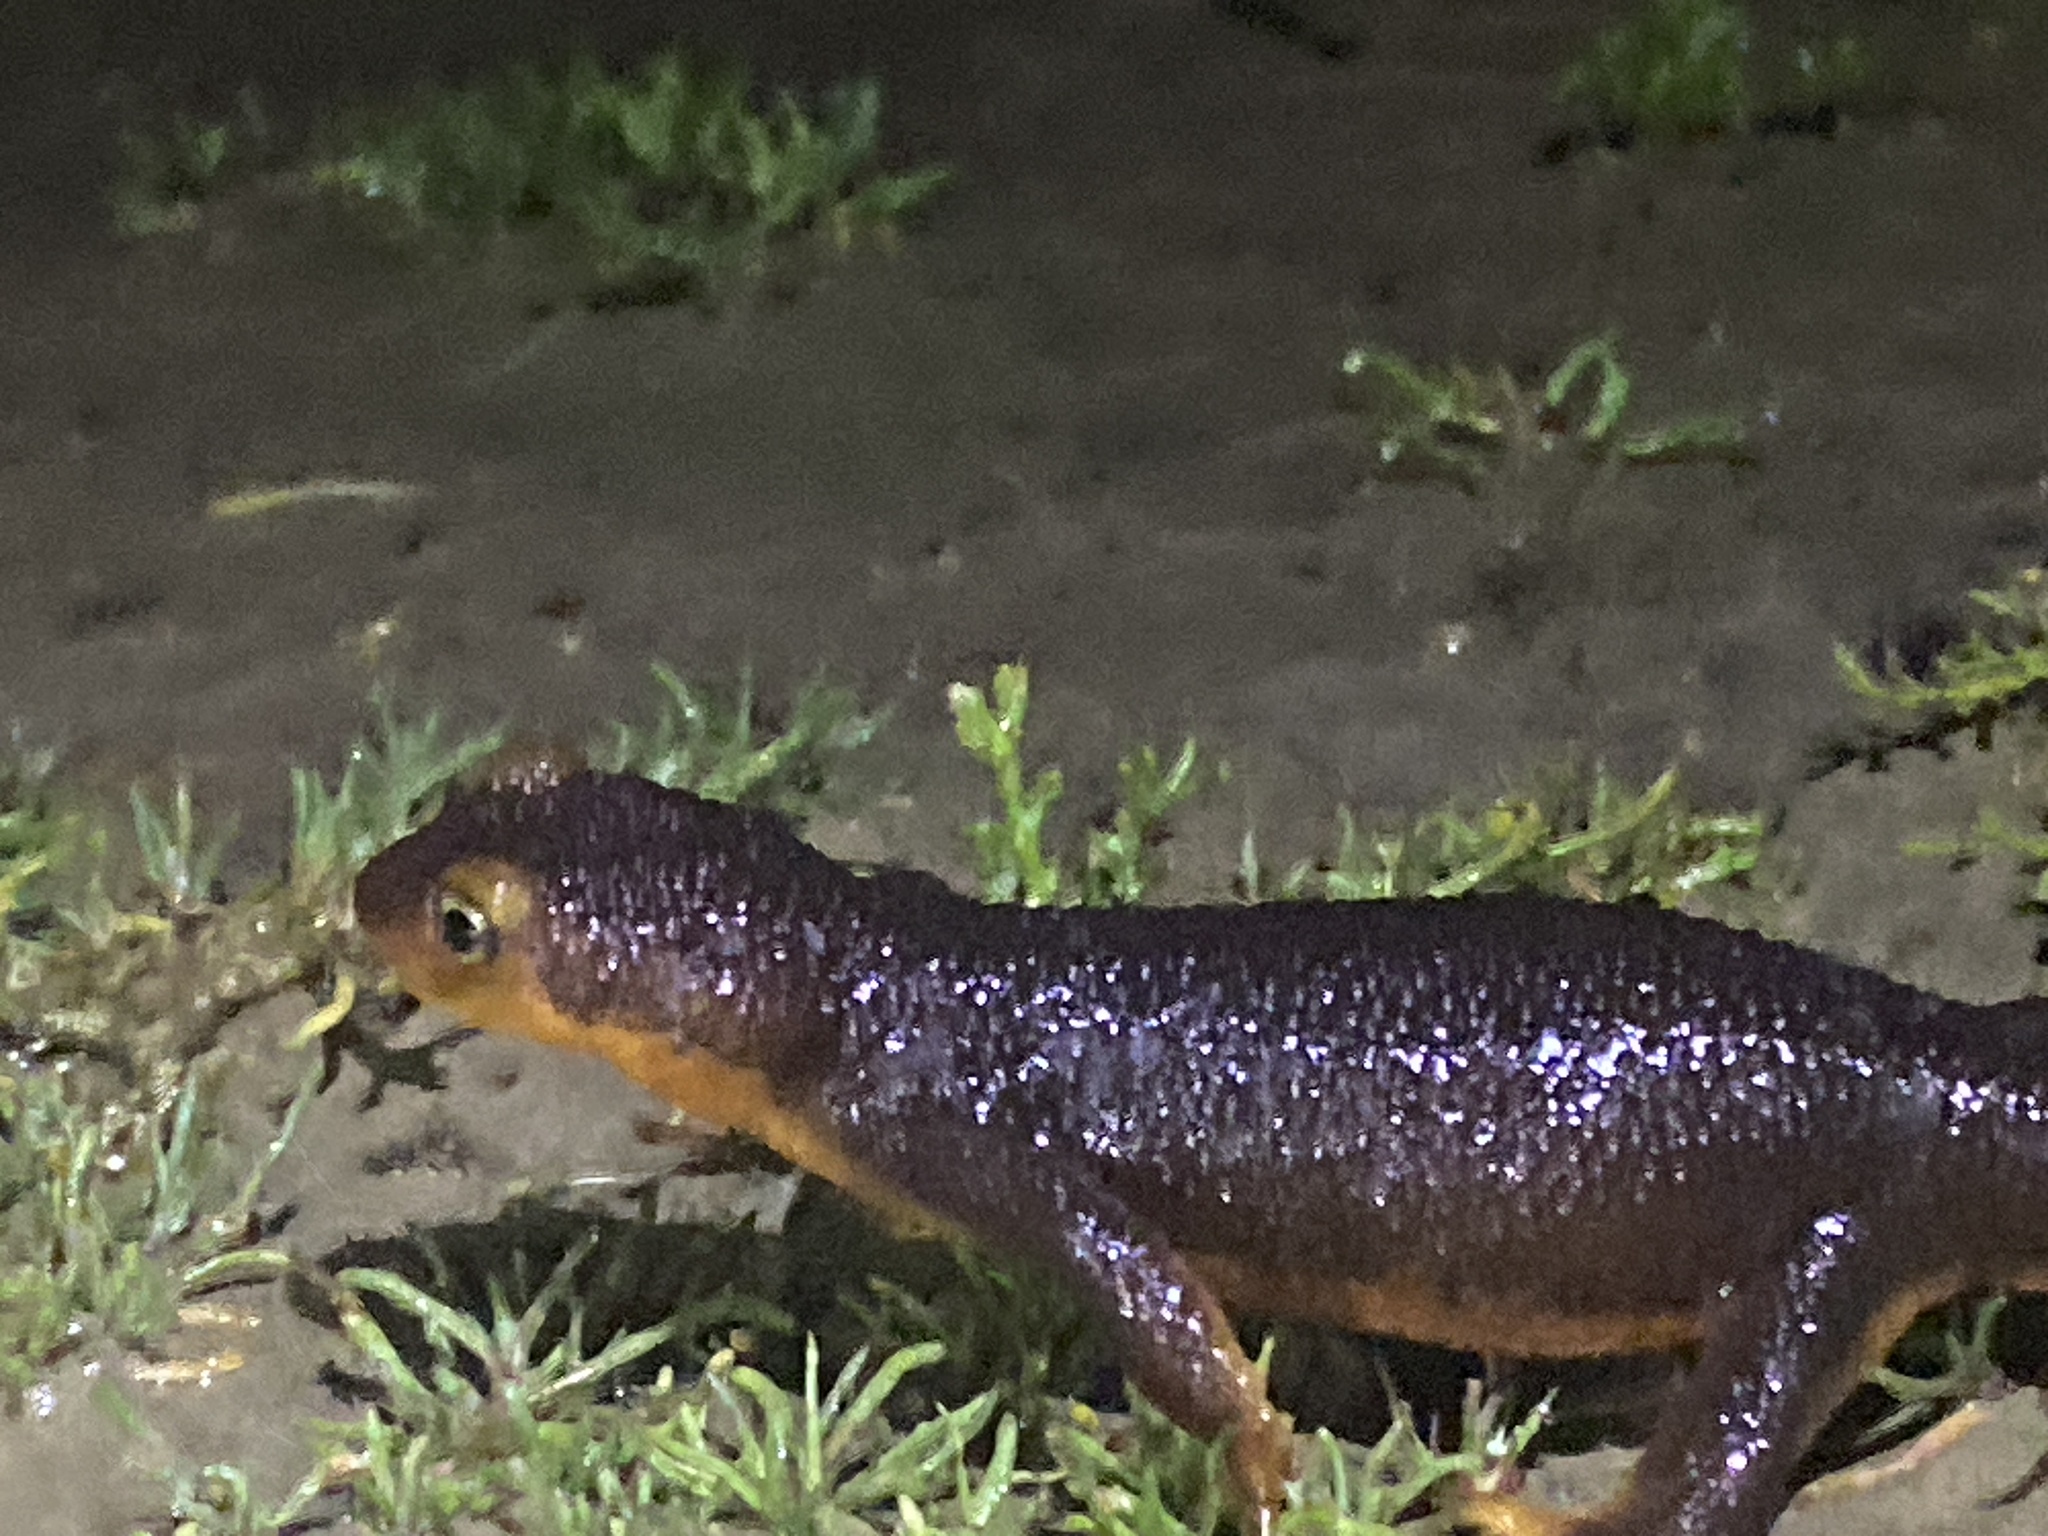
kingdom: Animalia
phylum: Chordata
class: Amphibia
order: Caudata
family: Salamandridae
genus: Taricha
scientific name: Taricha torosa
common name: California newt
